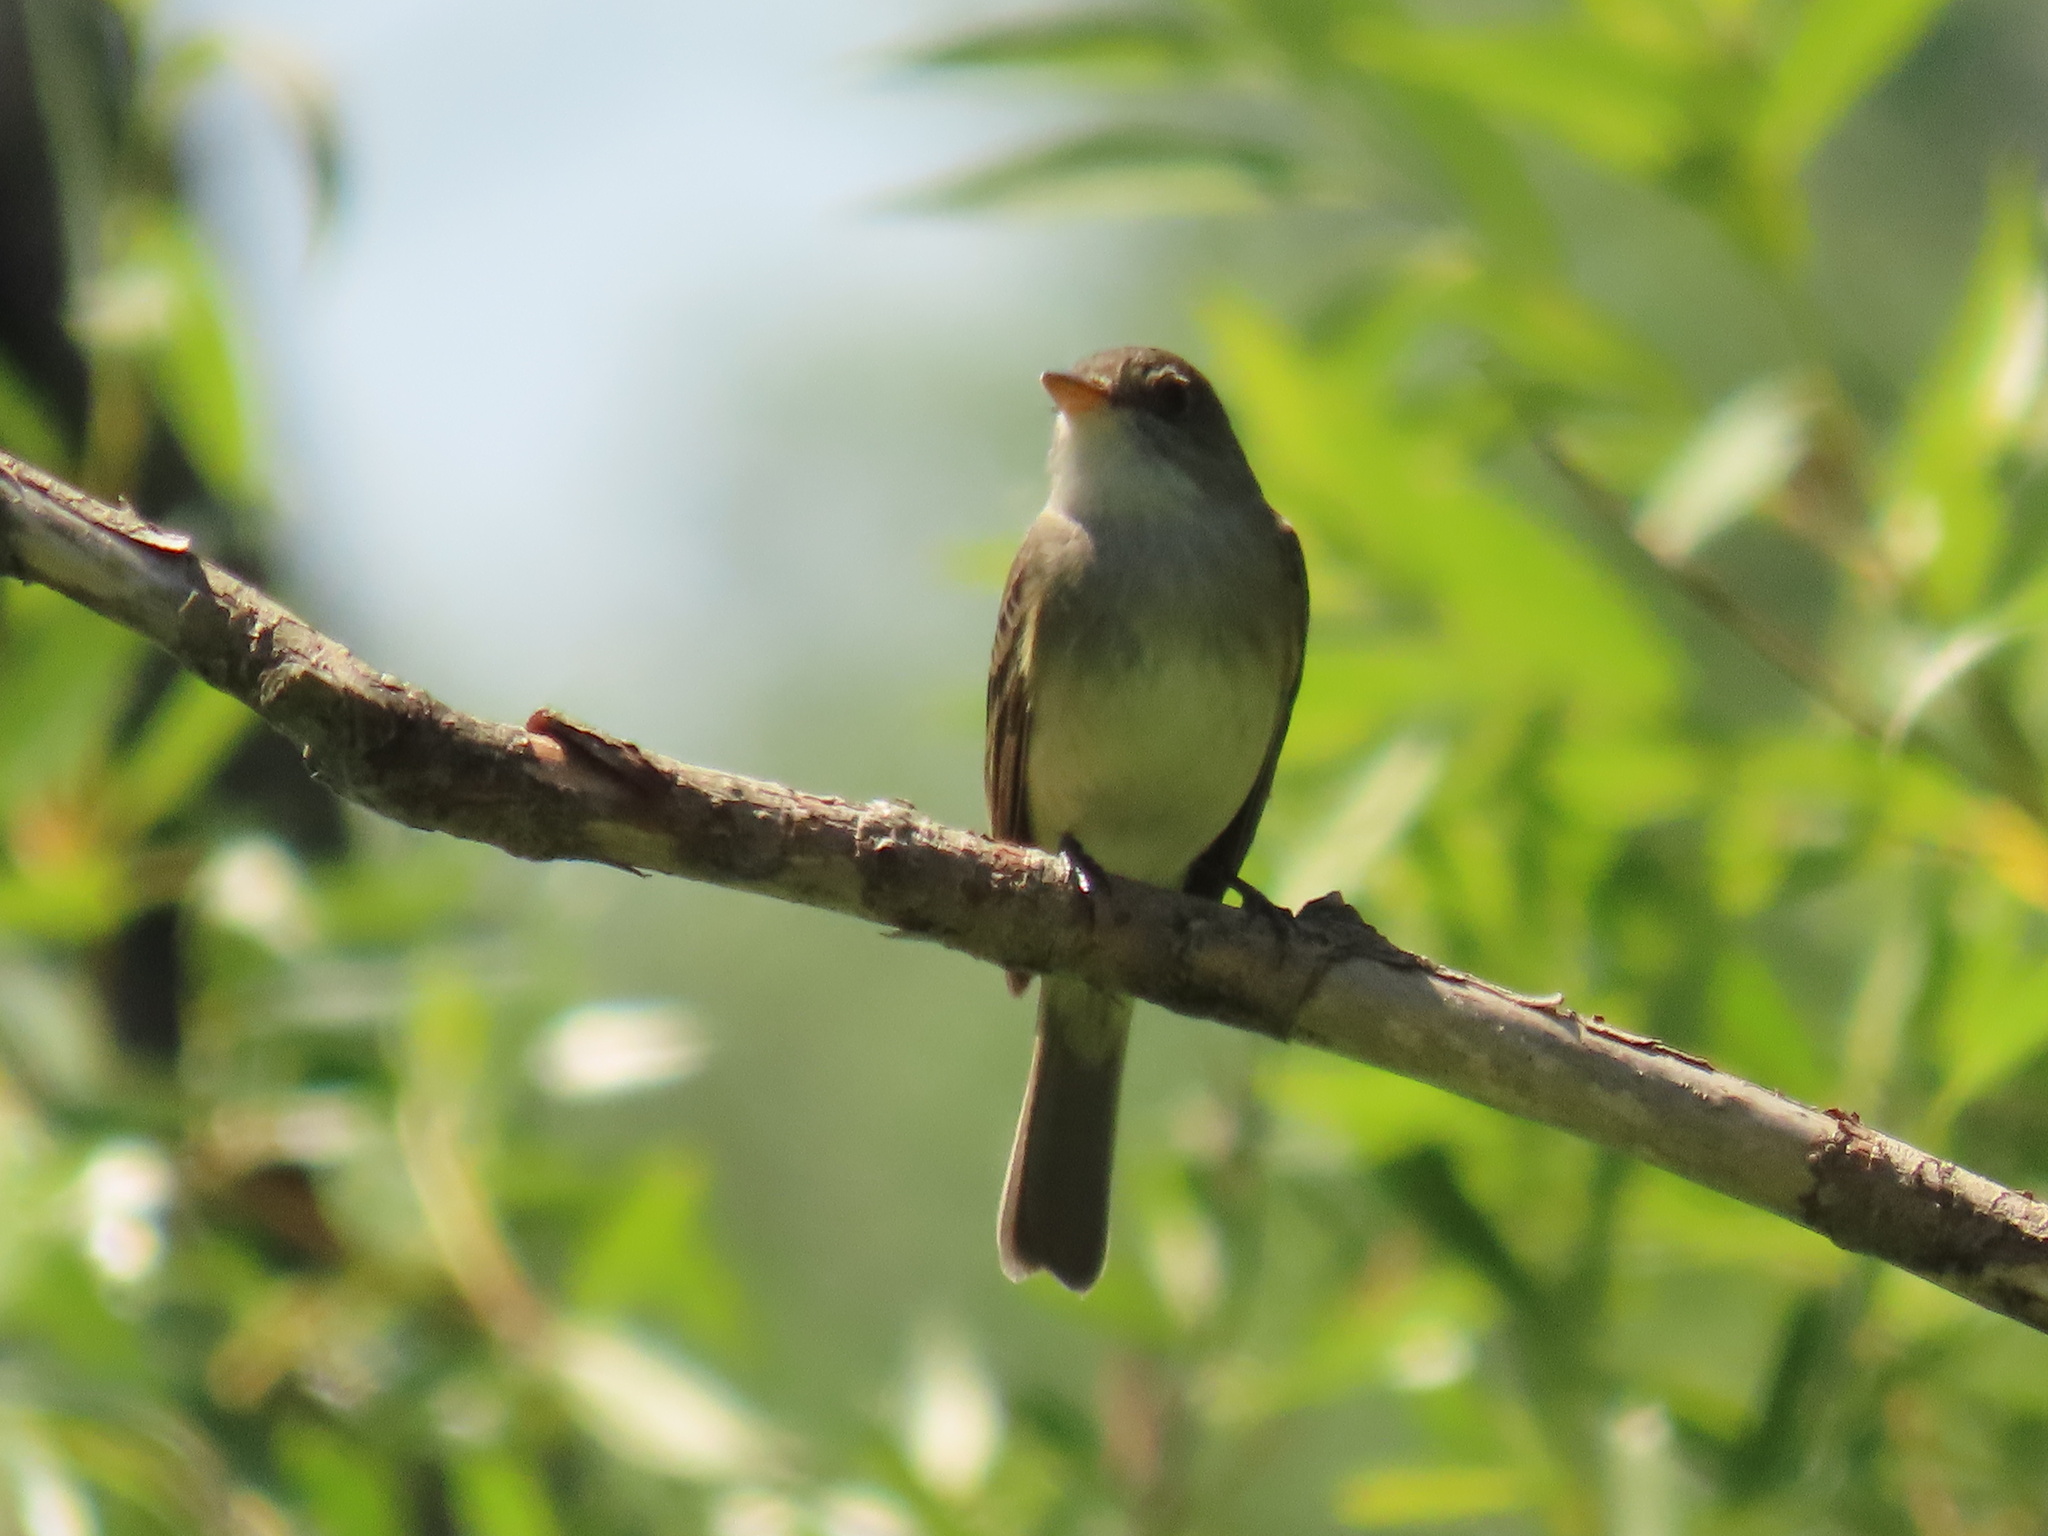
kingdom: Animalia
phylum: Chordata
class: Aves
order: Passeriformes
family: Tyrannidae
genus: Empidonax
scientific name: Empidonax traillii
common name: Willow flycatcher
